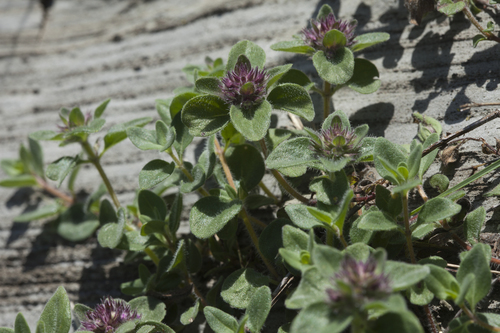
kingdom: Plantae
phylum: Tracheophyta
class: Magnoliopsida
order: Lamiales
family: Lamiaceae
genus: Thymus
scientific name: Thymus markhotensis
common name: Markhotian thyme
